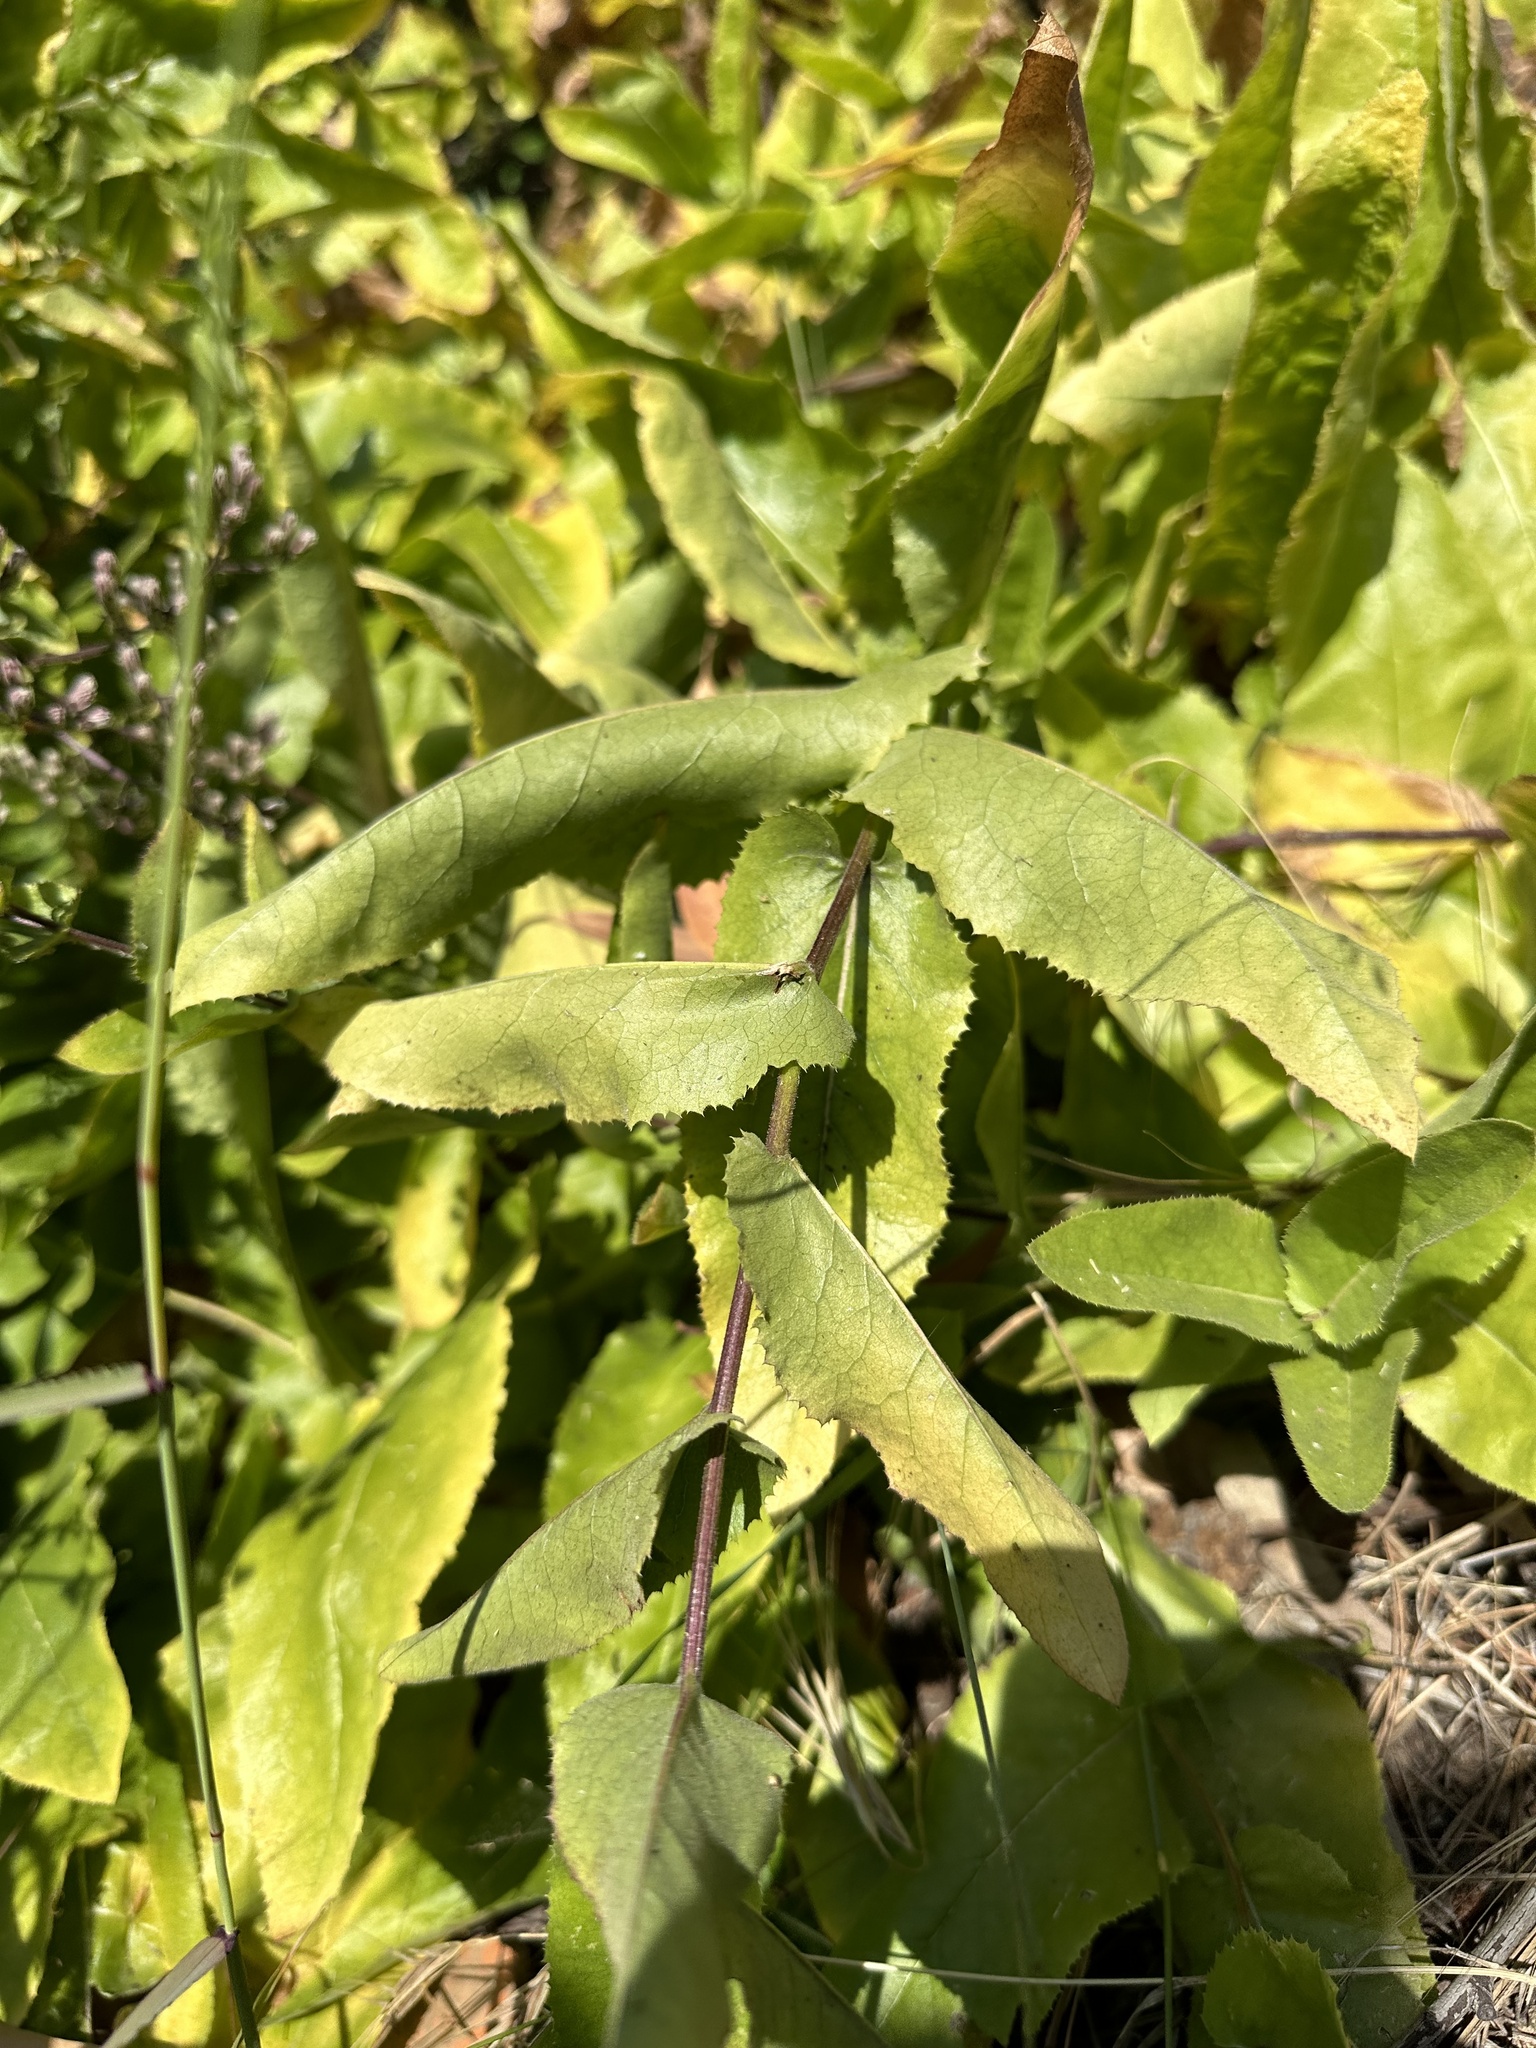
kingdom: Plantae
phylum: Tracheophyta
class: Magnoliopsida
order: Asterales
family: Asteraceae
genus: Acourtia
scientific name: Acourtia microcephala
